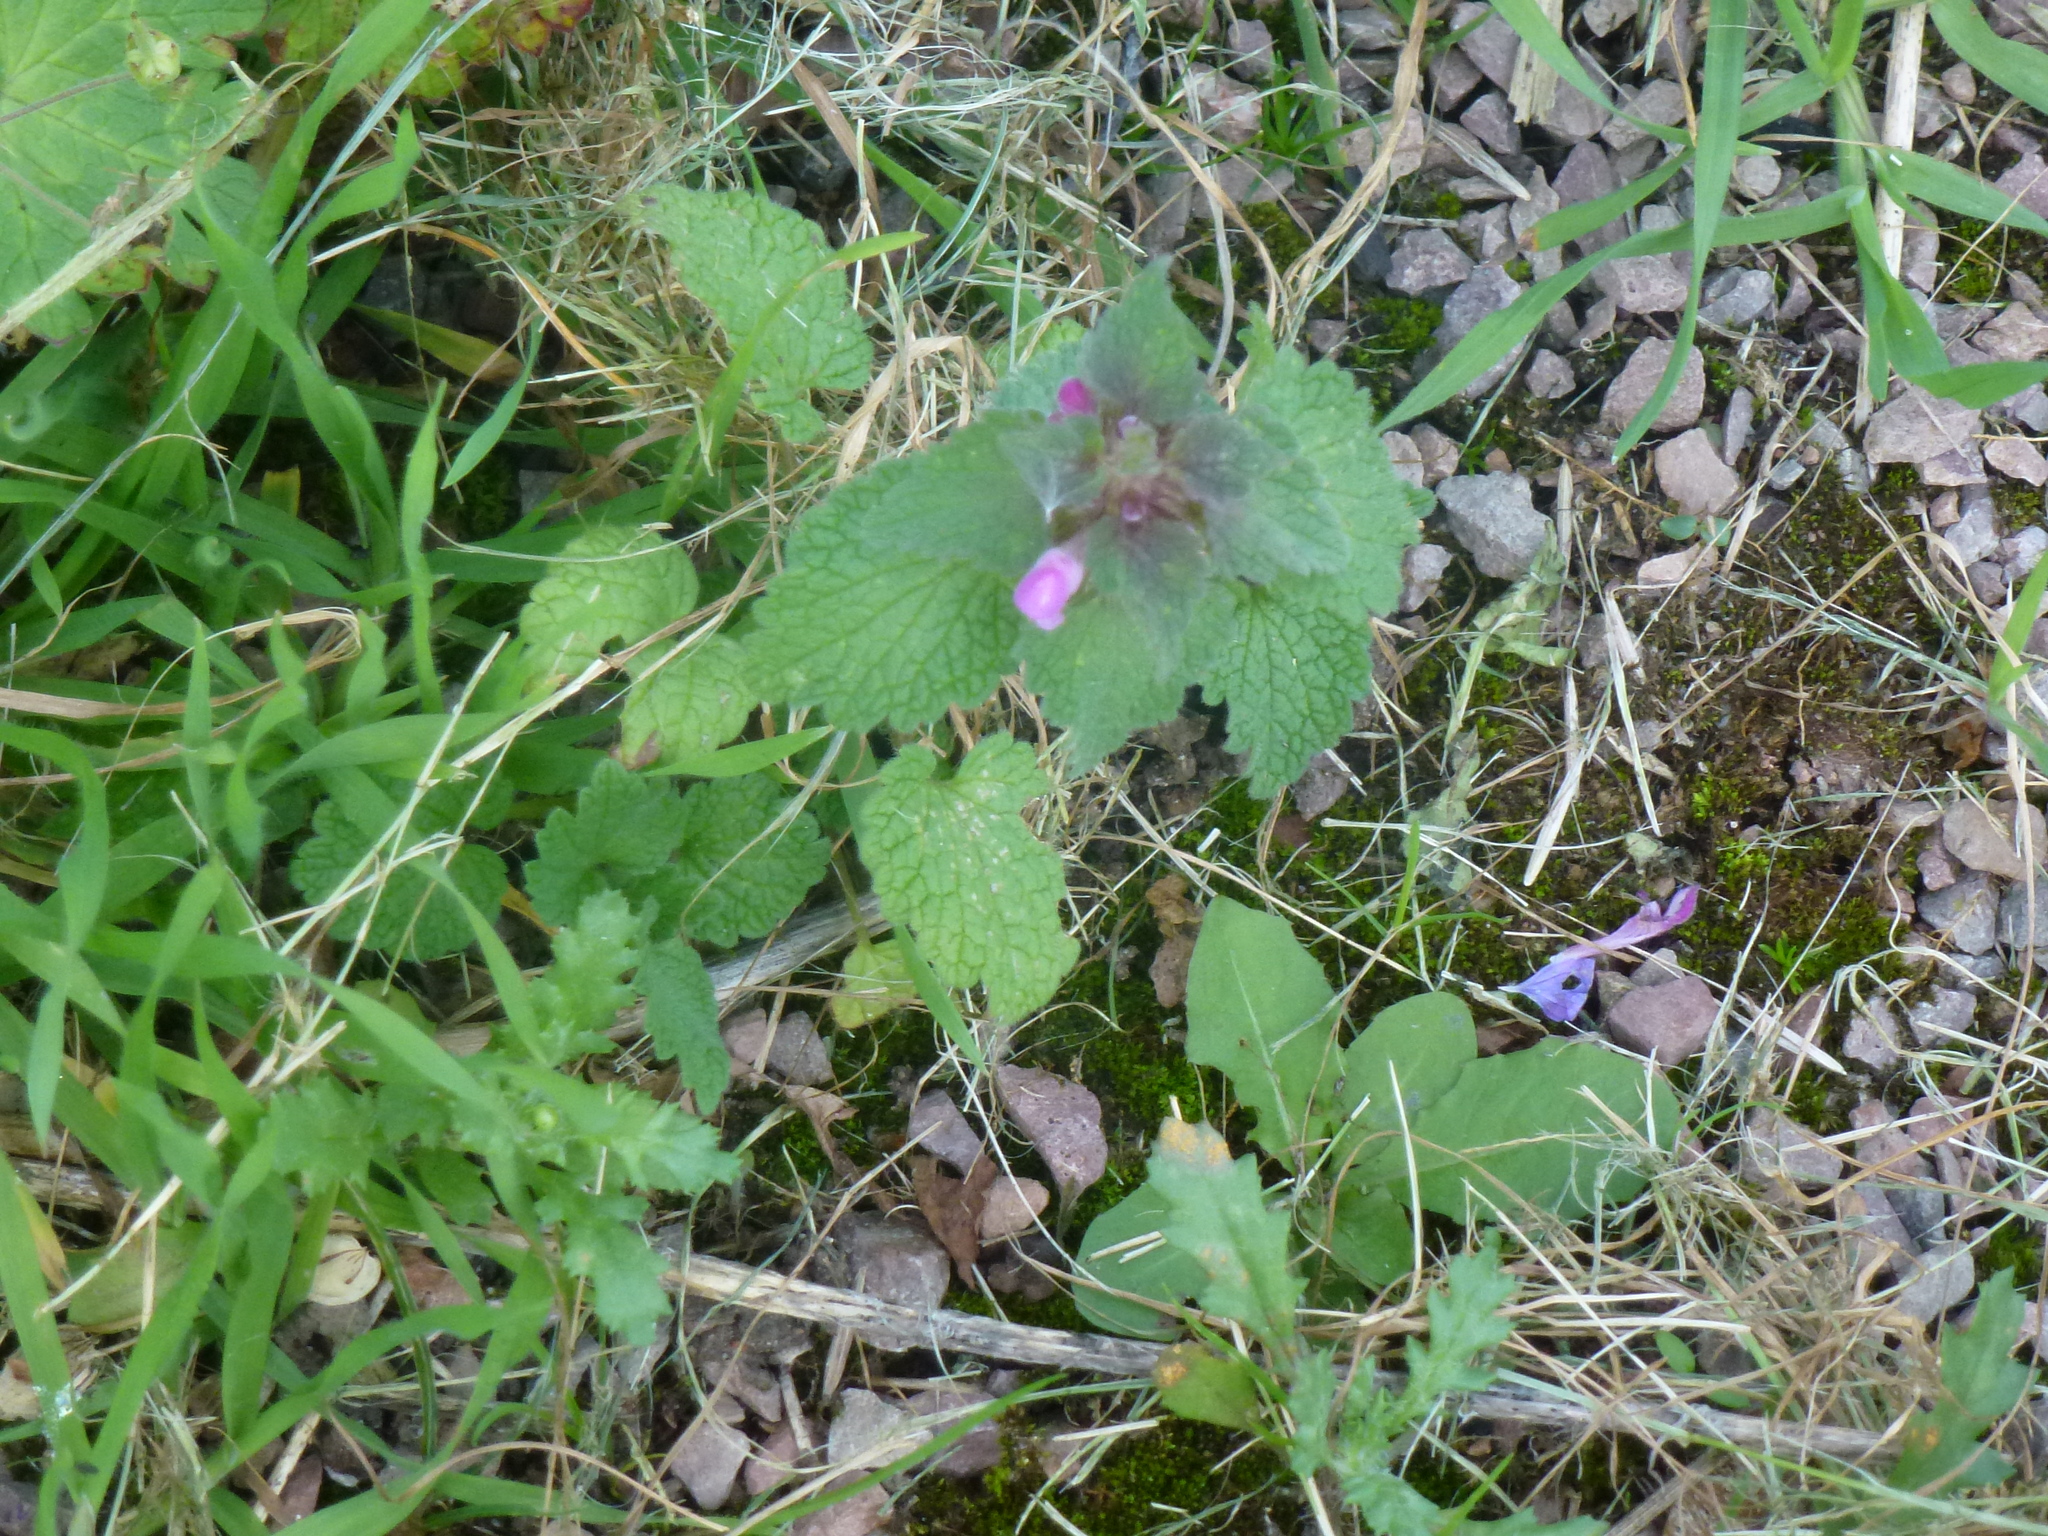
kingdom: Plantae
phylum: Tracheophyta
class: Magnoliopsida
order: Lamiales
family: Lamiaceae
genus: Lamium
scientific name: Lamium purpureum
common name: Red dead-nettle
